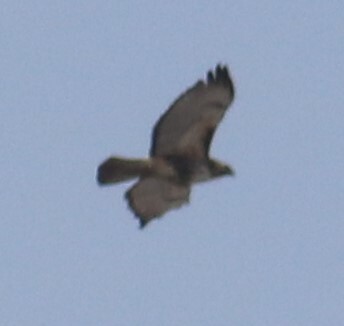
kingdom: Animalia
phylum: Chordata
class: Aves
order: Accipitriformes
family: Accipitridae
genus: Buteo
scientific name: Buteo jamaicensis
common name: Red-tailed hawk
